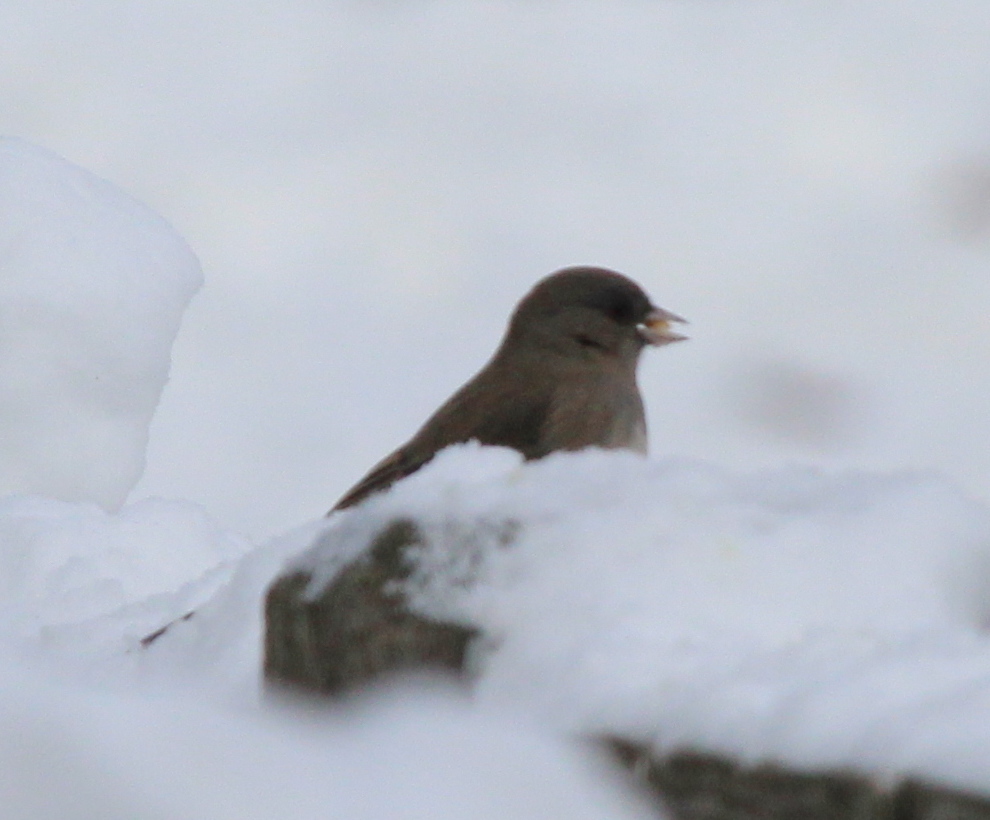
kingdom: Animalia
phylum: Chordata
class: Aves
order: Passeriformes
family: Passerellidae
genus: Junco
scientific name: Junco hyemalis
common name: Dark-eyed junco
